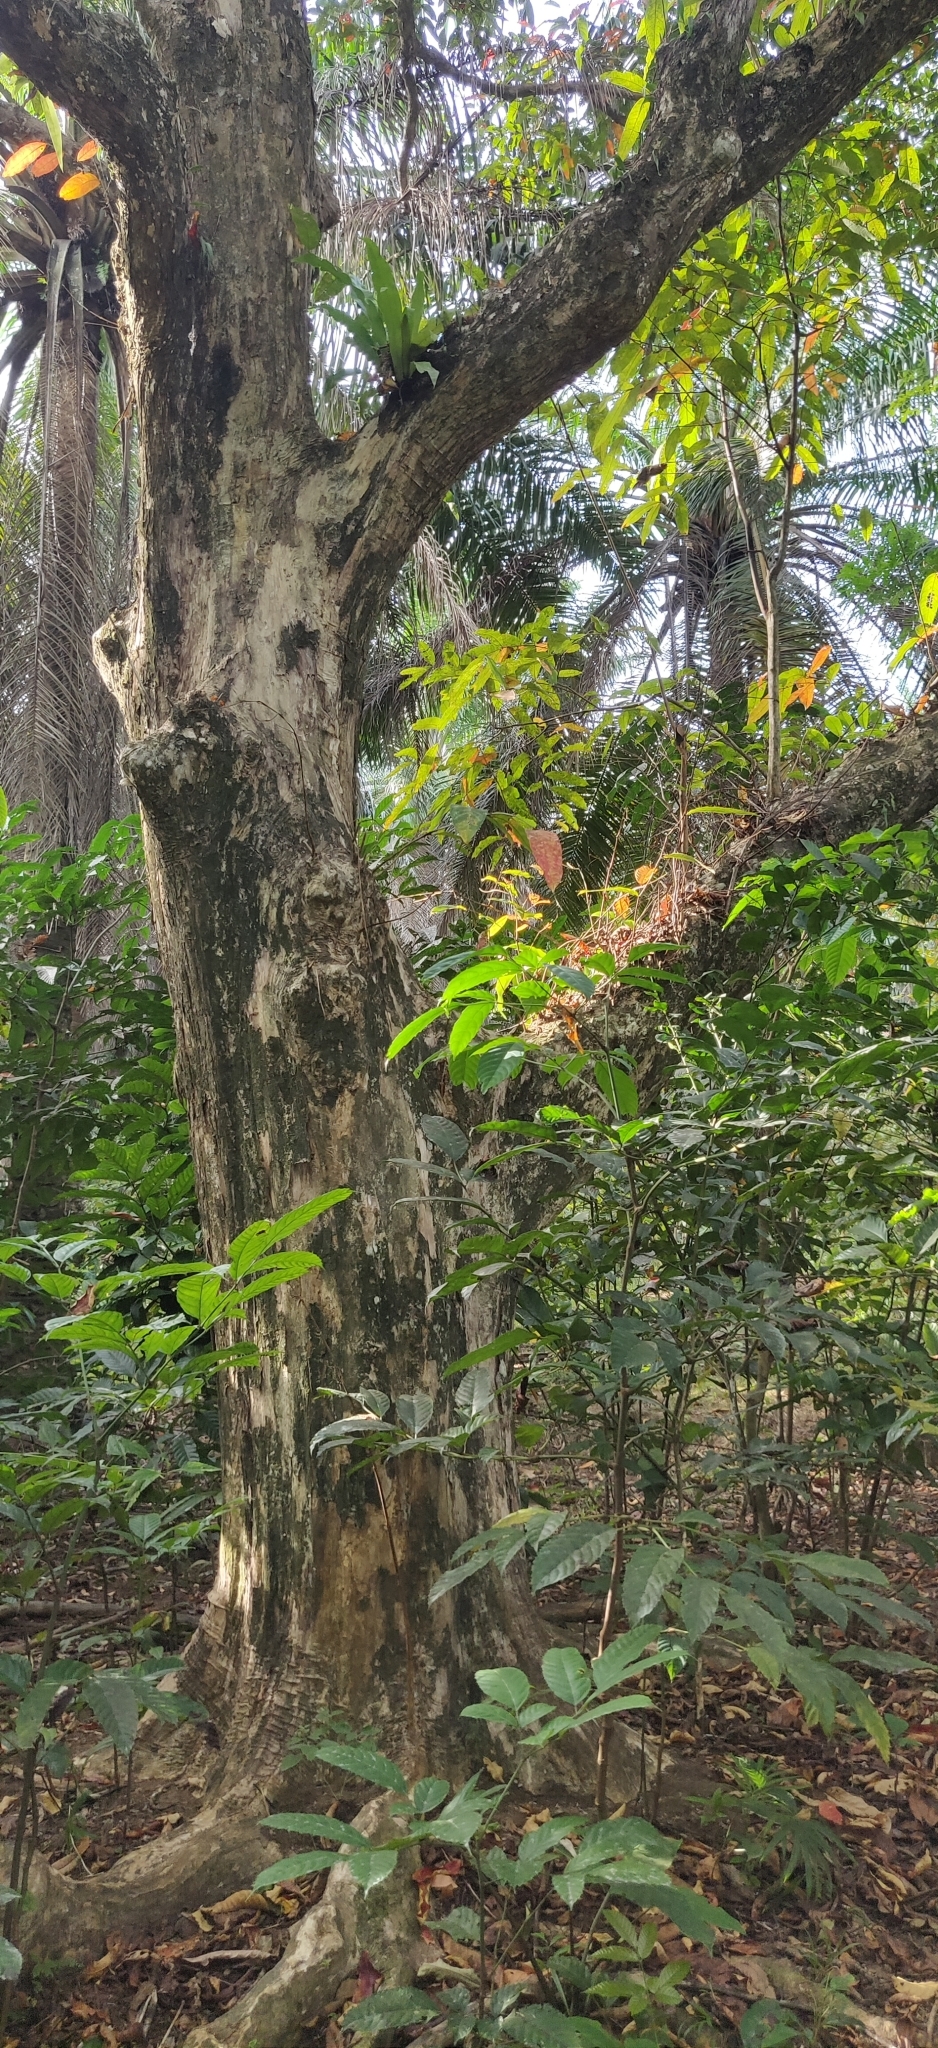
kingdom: Plantae
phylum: Tracheophyta
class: Magnoliopsida
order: Myrtales
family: Lythraceae
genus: Lagerstroemia
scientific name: Lagerstroemia hypoleuca
